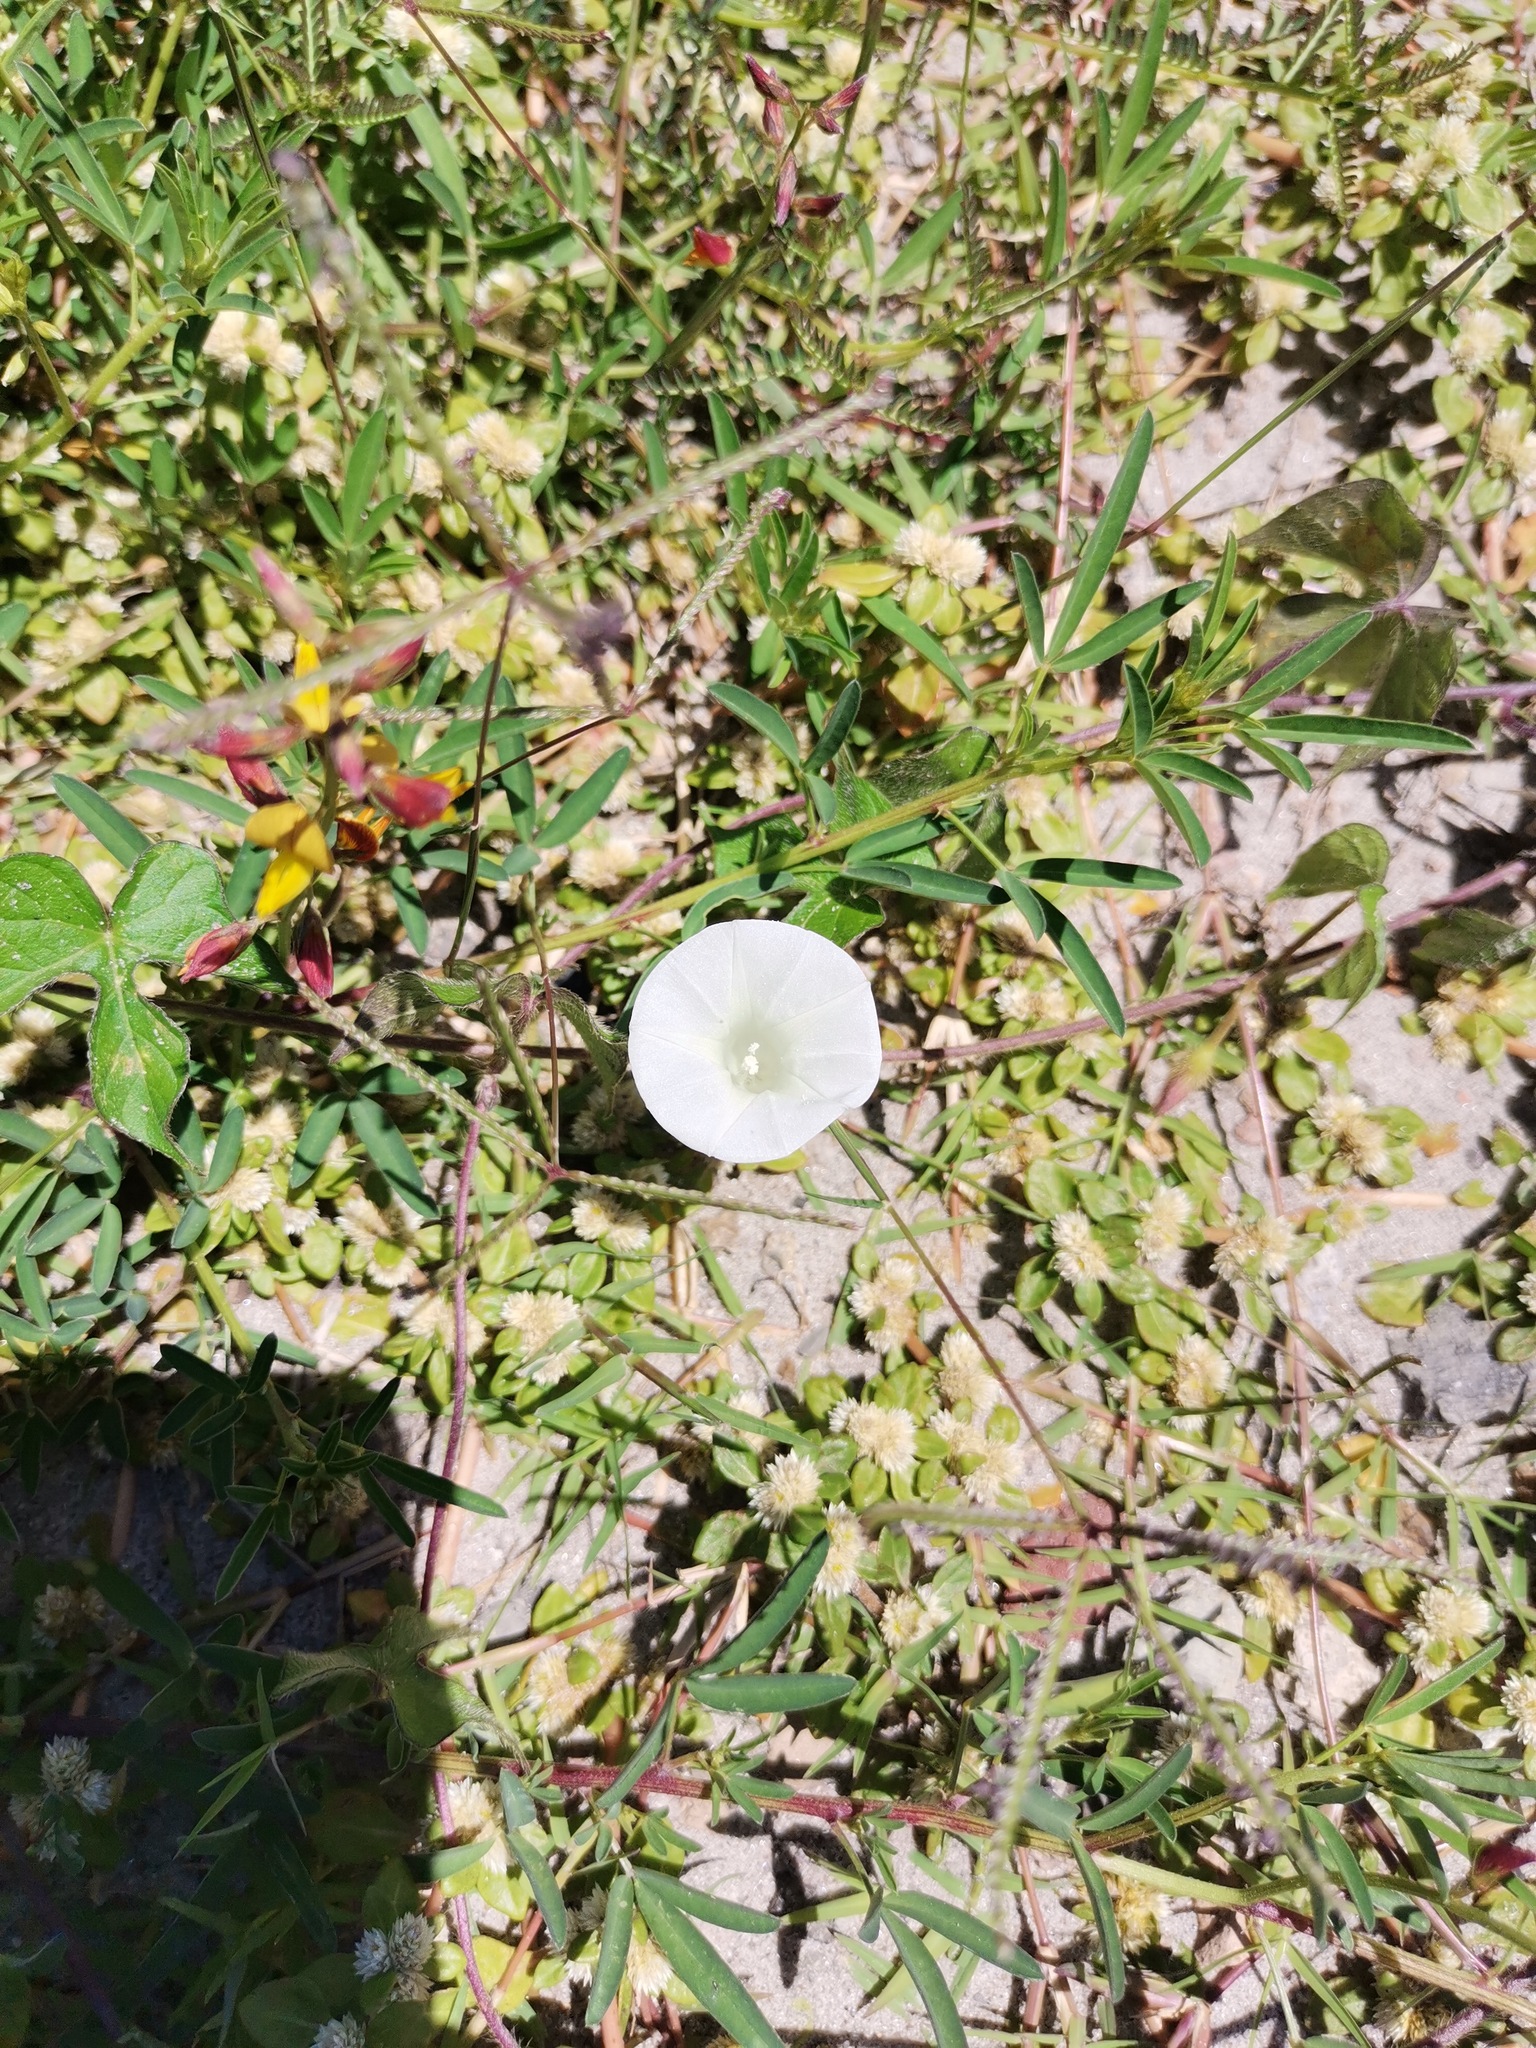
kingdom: Plantae
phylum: Tracheophyta
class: Magnoliopsida
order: Solanales
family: Convolvulaceae
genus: Ipomoea
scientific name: Ipomoea purpurea
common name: Common morning-glory
